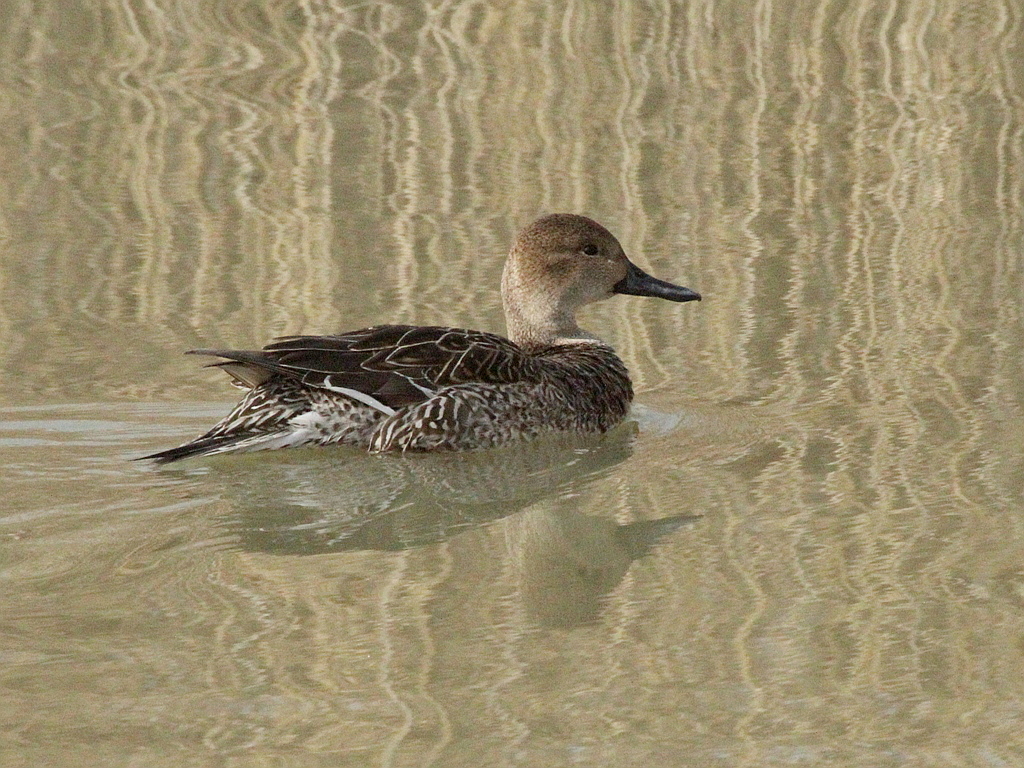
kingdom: Animalia
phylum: Chordata
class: Aves
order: Anseriformes
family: Anatidae
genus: Anas
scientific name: Anas acuta
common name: Northern pintail
